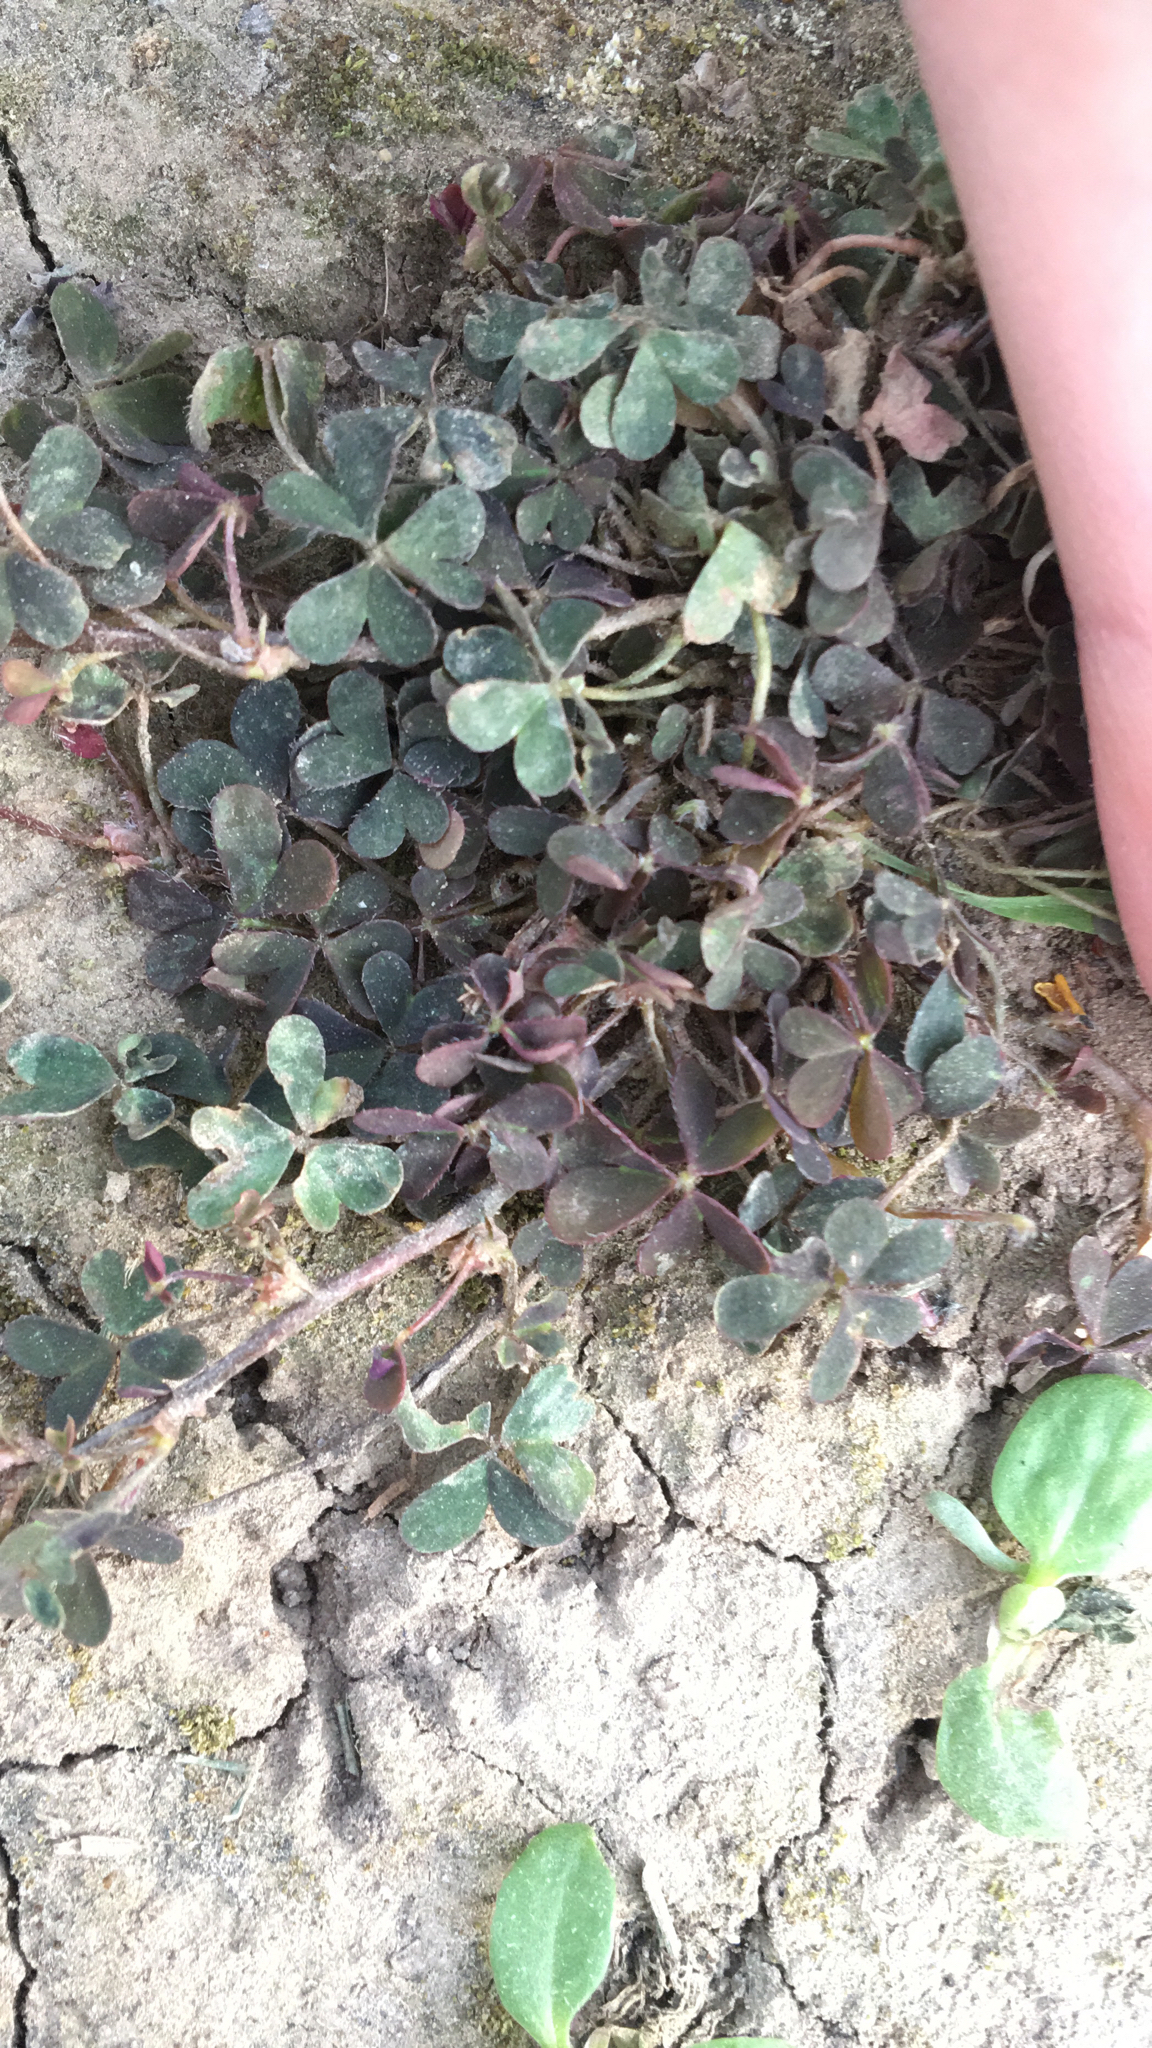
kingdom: Plantae
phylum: Tracheophyta
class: Magnoliopsida
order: Oxalidales
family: Oxalidaceae
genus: Oxalis
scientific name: Oxalis corniculata
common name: Procumbent yellow-sorrel
